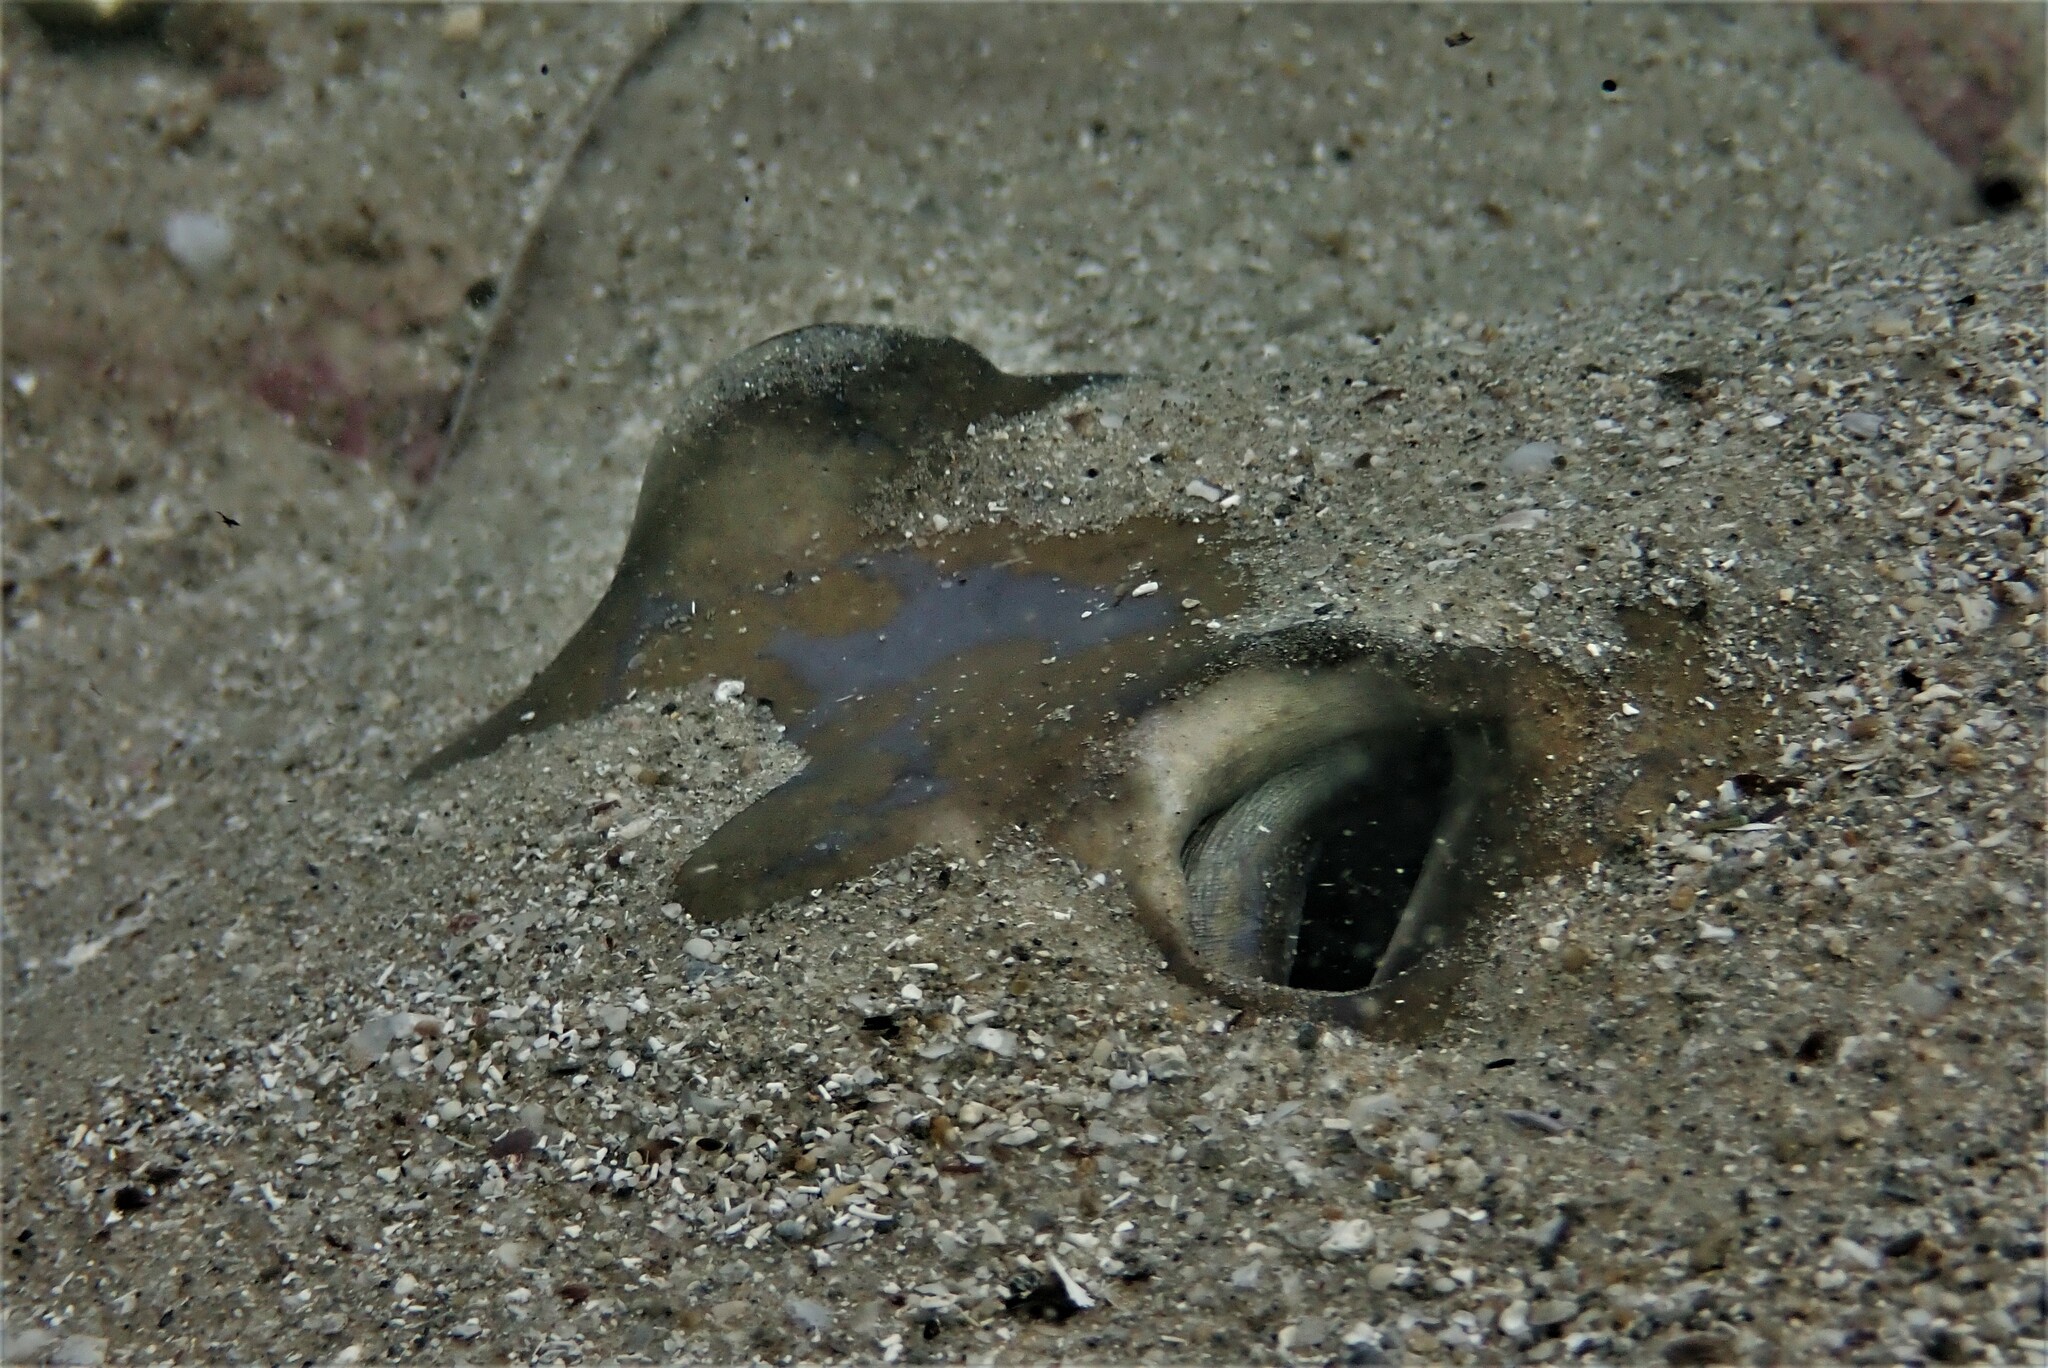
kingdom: Animalia
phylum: Chordata
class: Elasmobranchii
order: Myliobatiformes
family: Dasyatidae
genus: Dasyatis
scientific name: Dasyatis marmorata
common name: Marbled stingray
